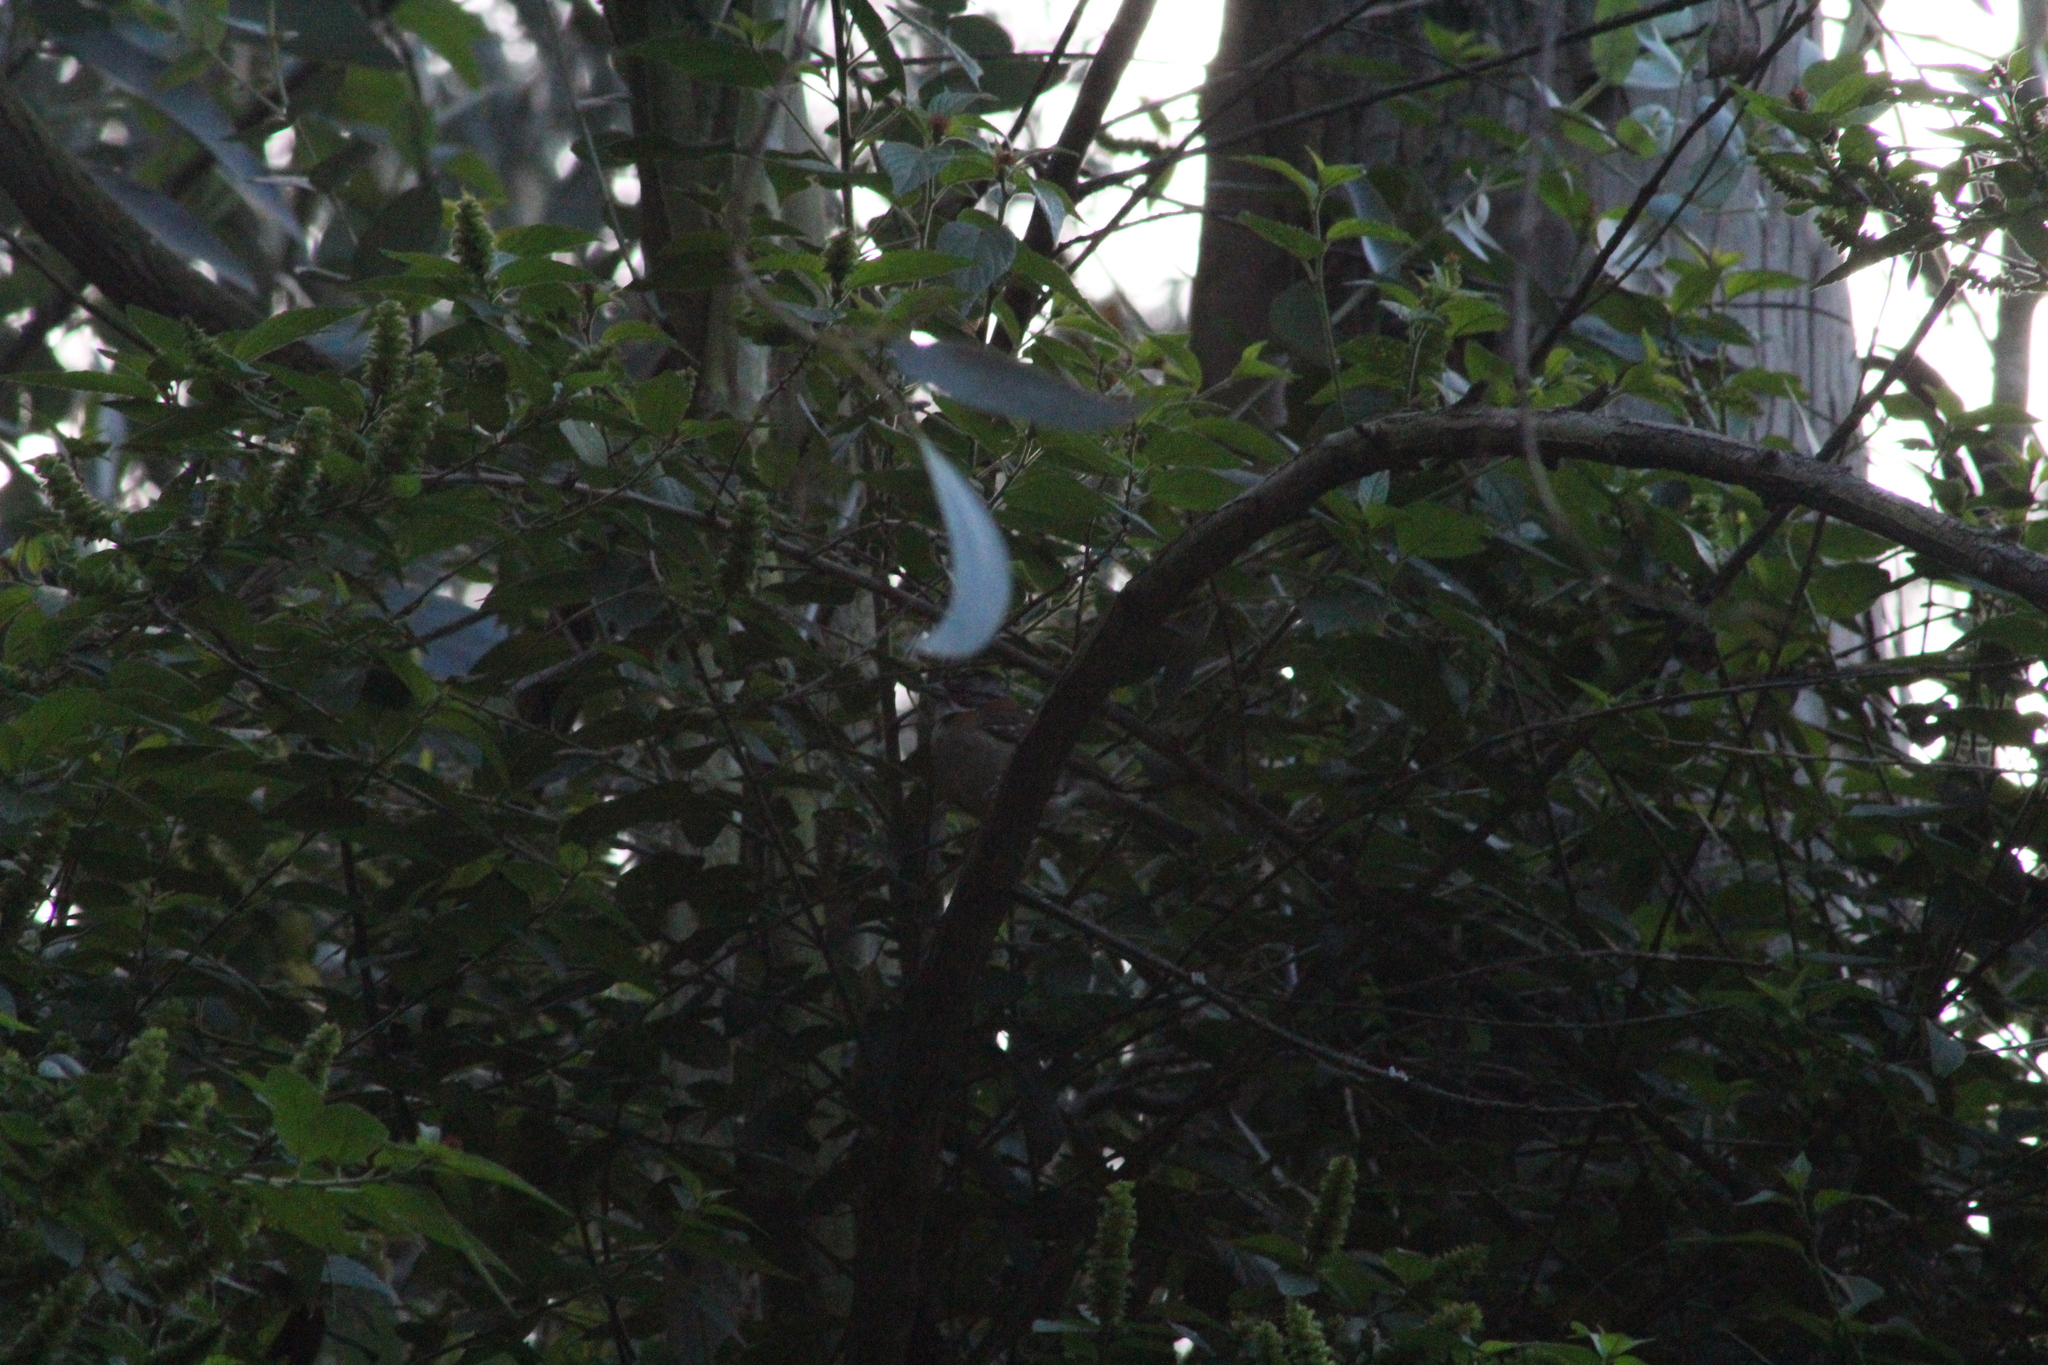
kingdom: Animalia
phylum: Chordata
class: Aves
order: Passeriformes
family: Passerellidae
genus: Zonotrichia
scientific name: Zonotrichia capensis
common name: Rufous-collared sparrow
